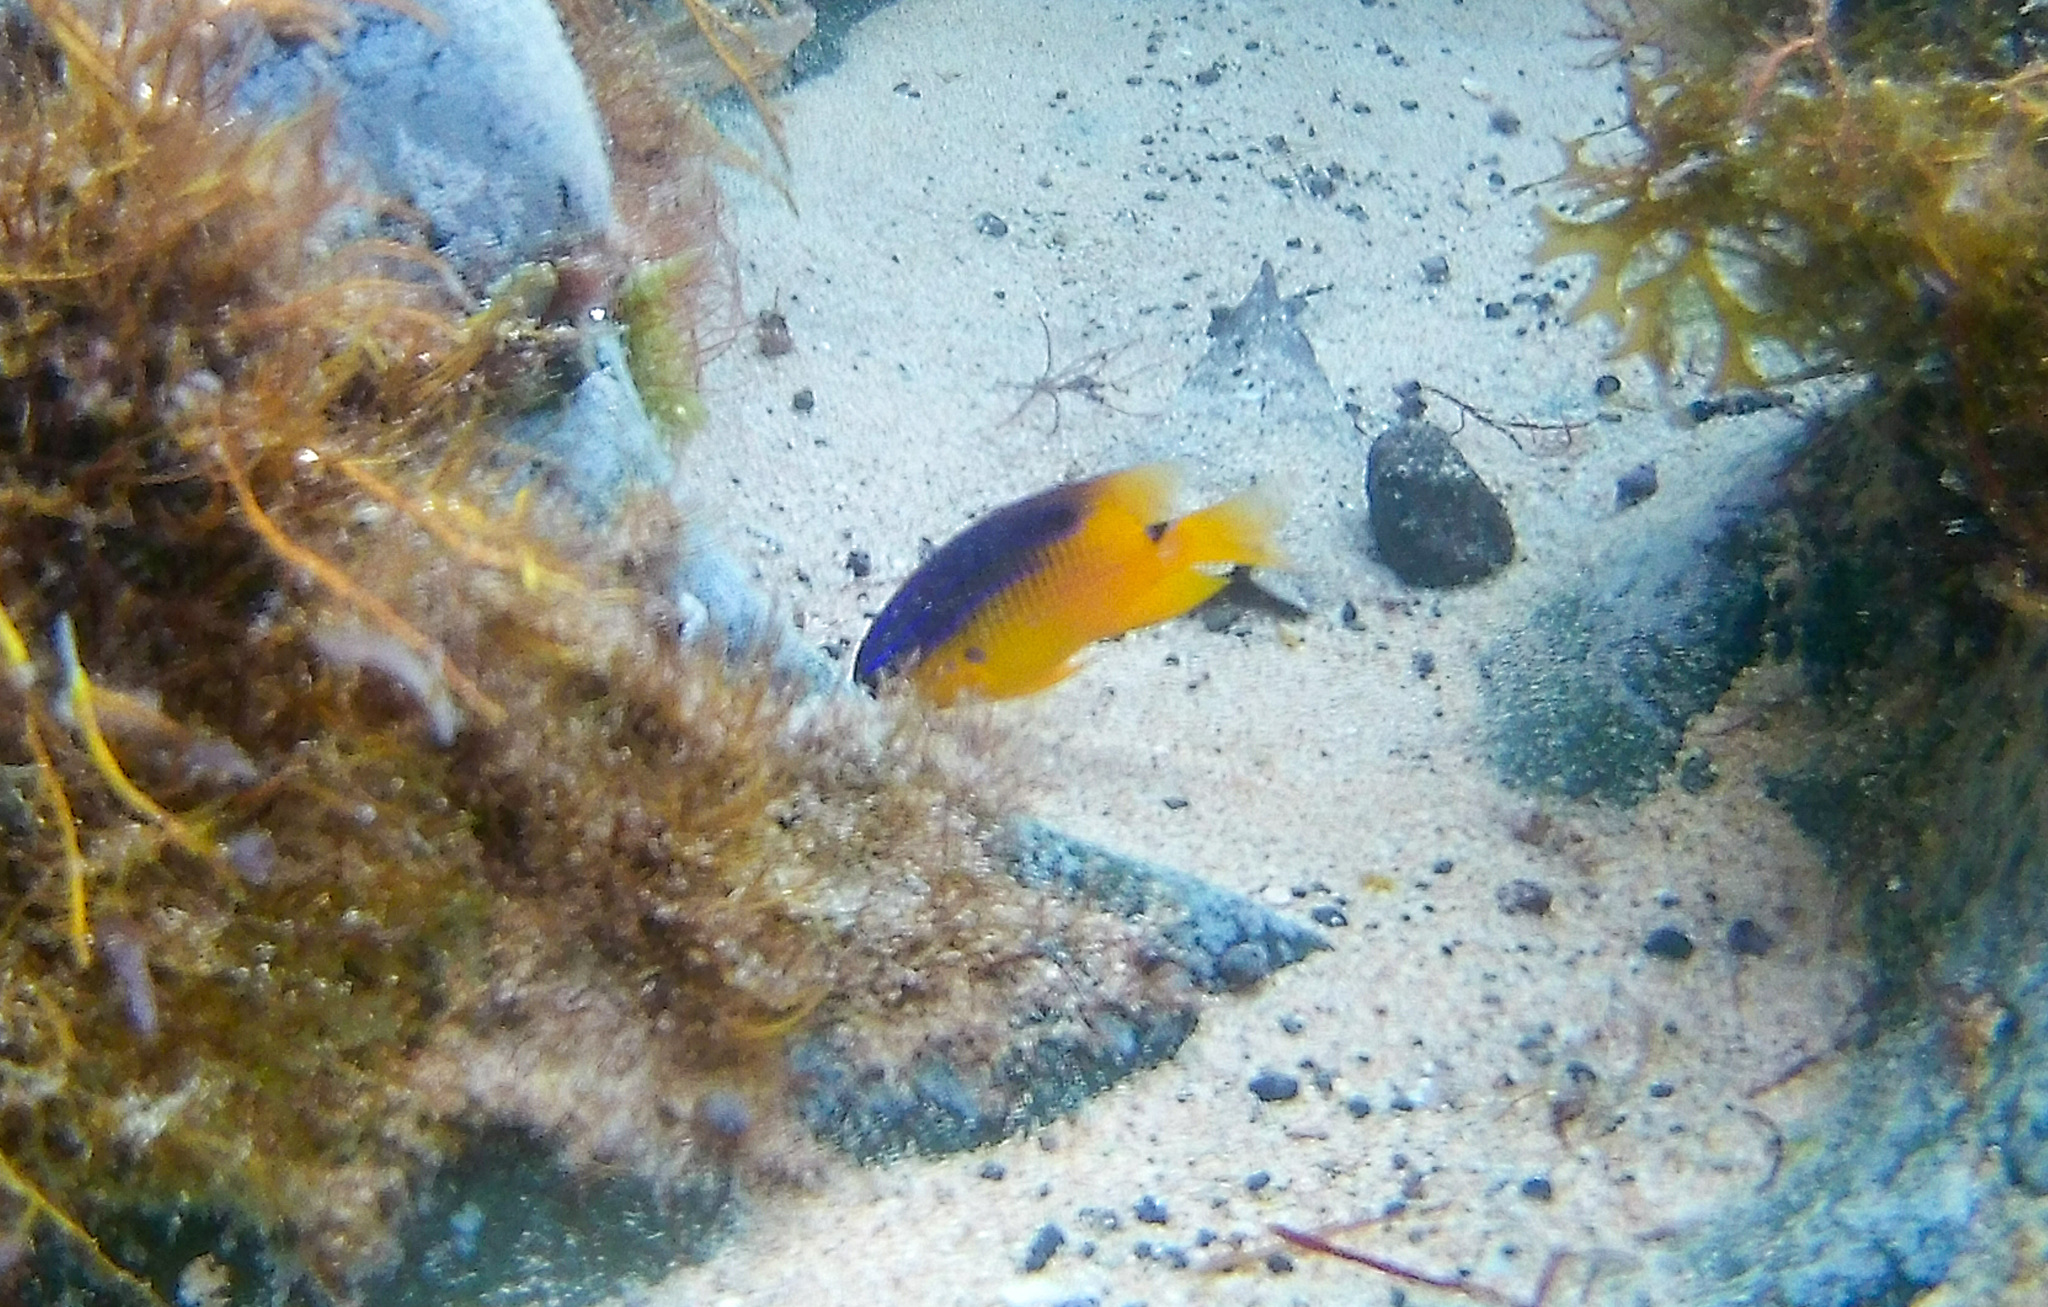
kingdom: Animalia
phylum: Chordata
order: Perciformes
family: Pomacentridae
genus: Stegastes
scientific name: Stegastes rocasensis
